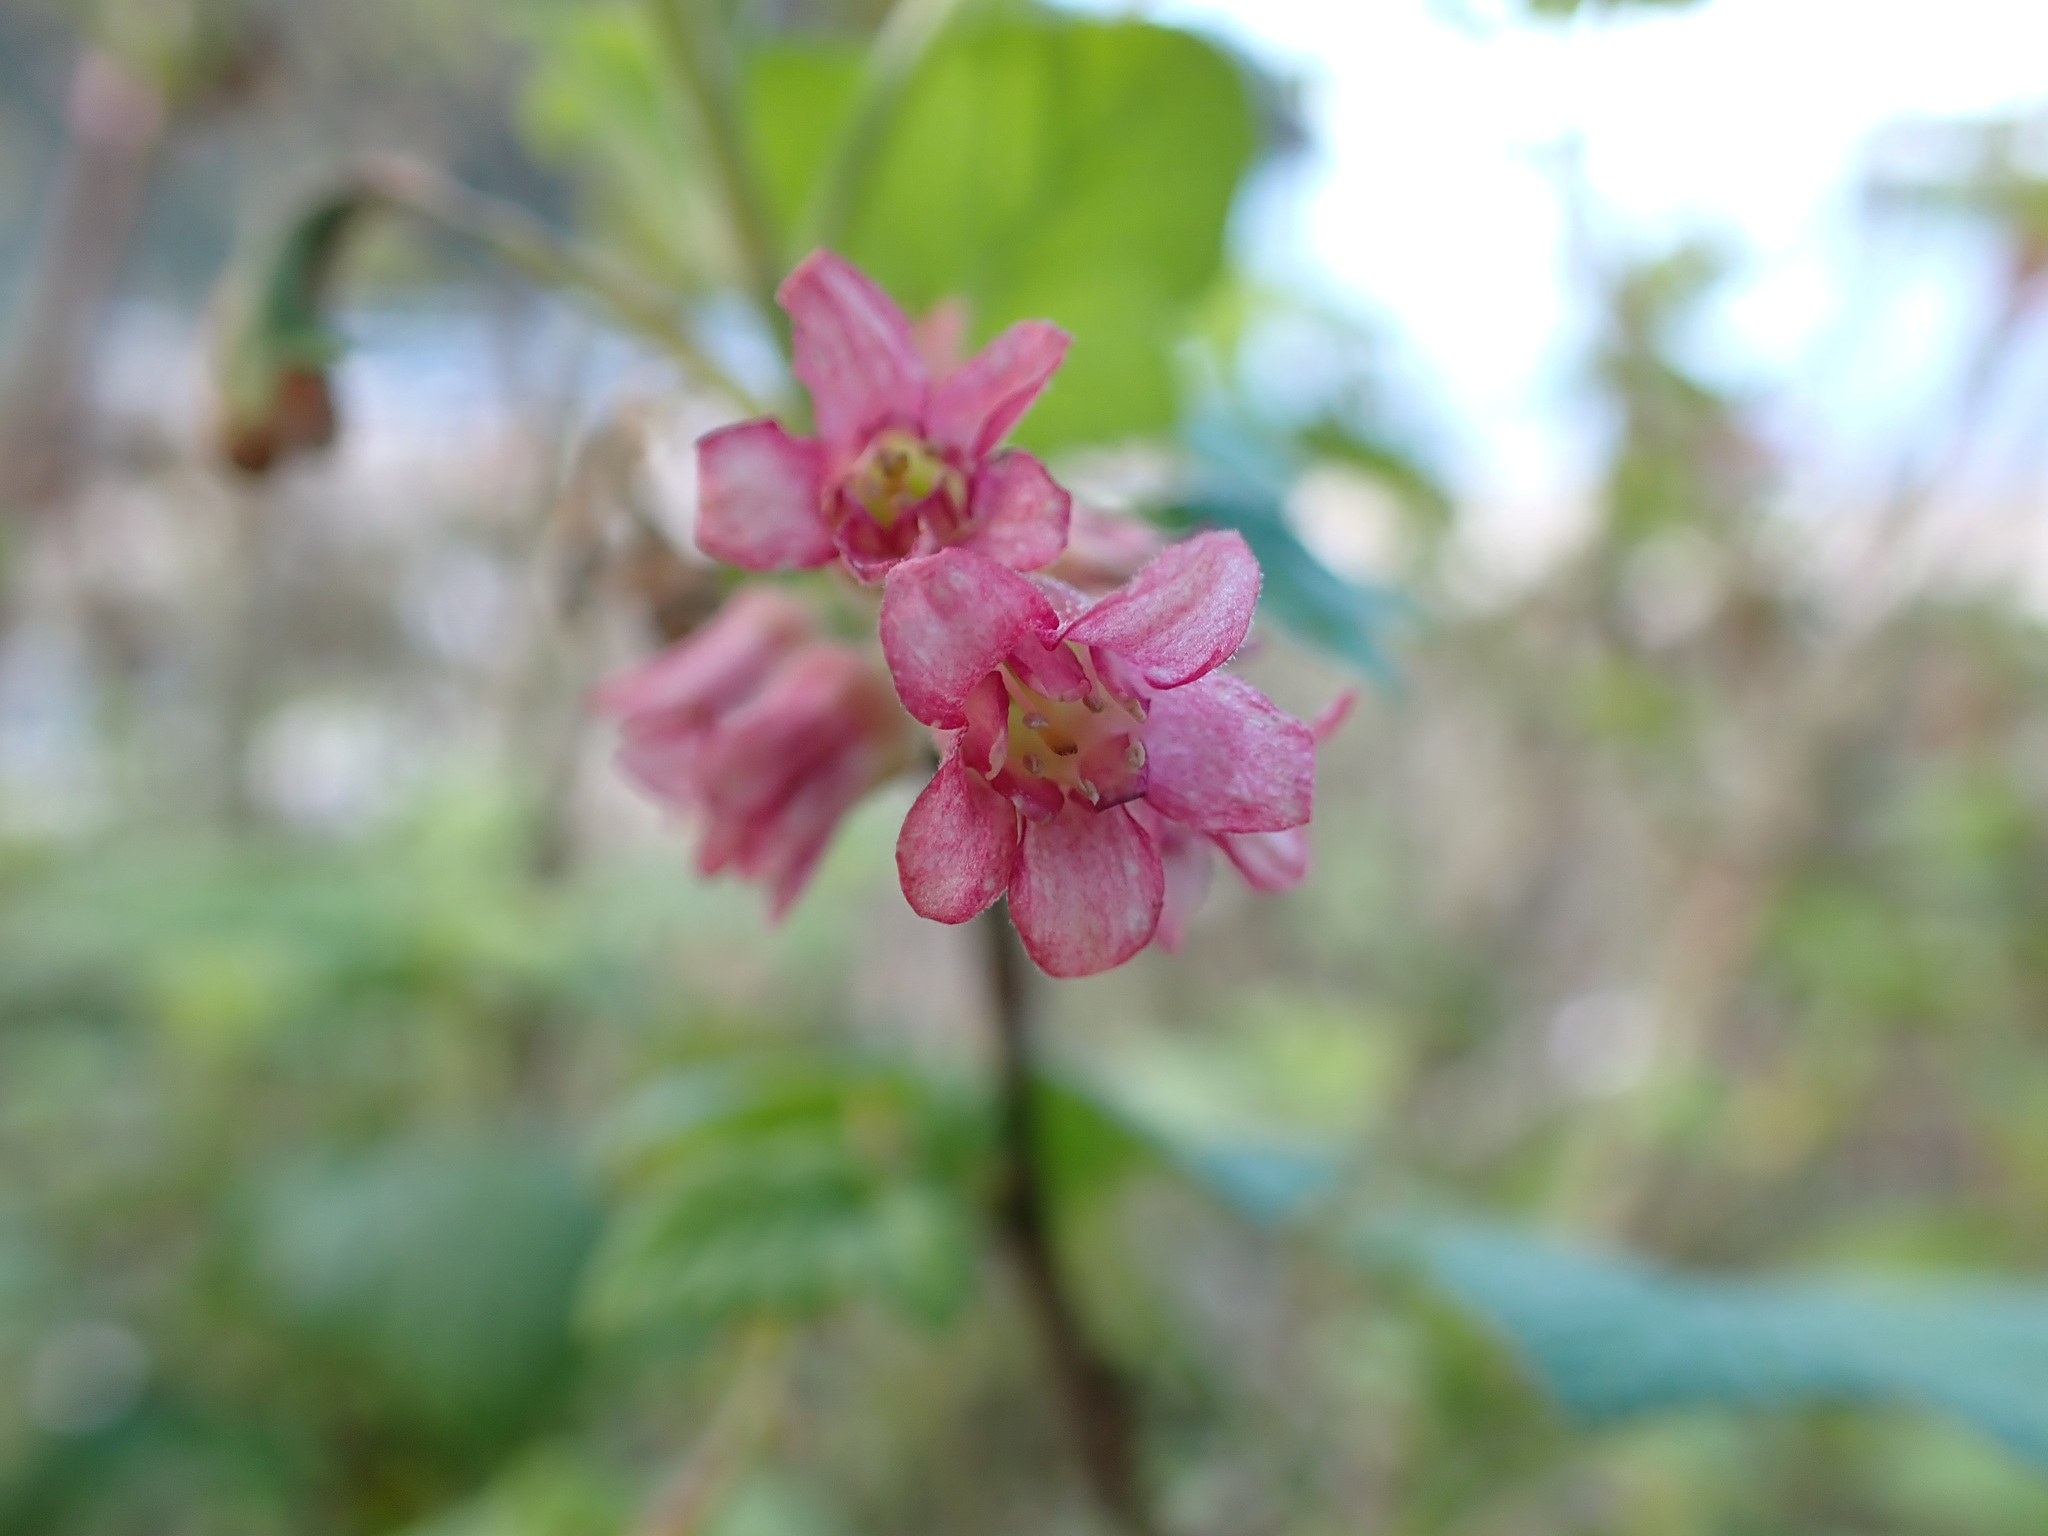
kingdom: Plantae
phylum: Tracheophyta
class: Magnoliopsida
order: Saxifragales
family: Grossulariaceae
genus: Ribes
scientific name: Ribes sanguineum
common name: Flowering currant
